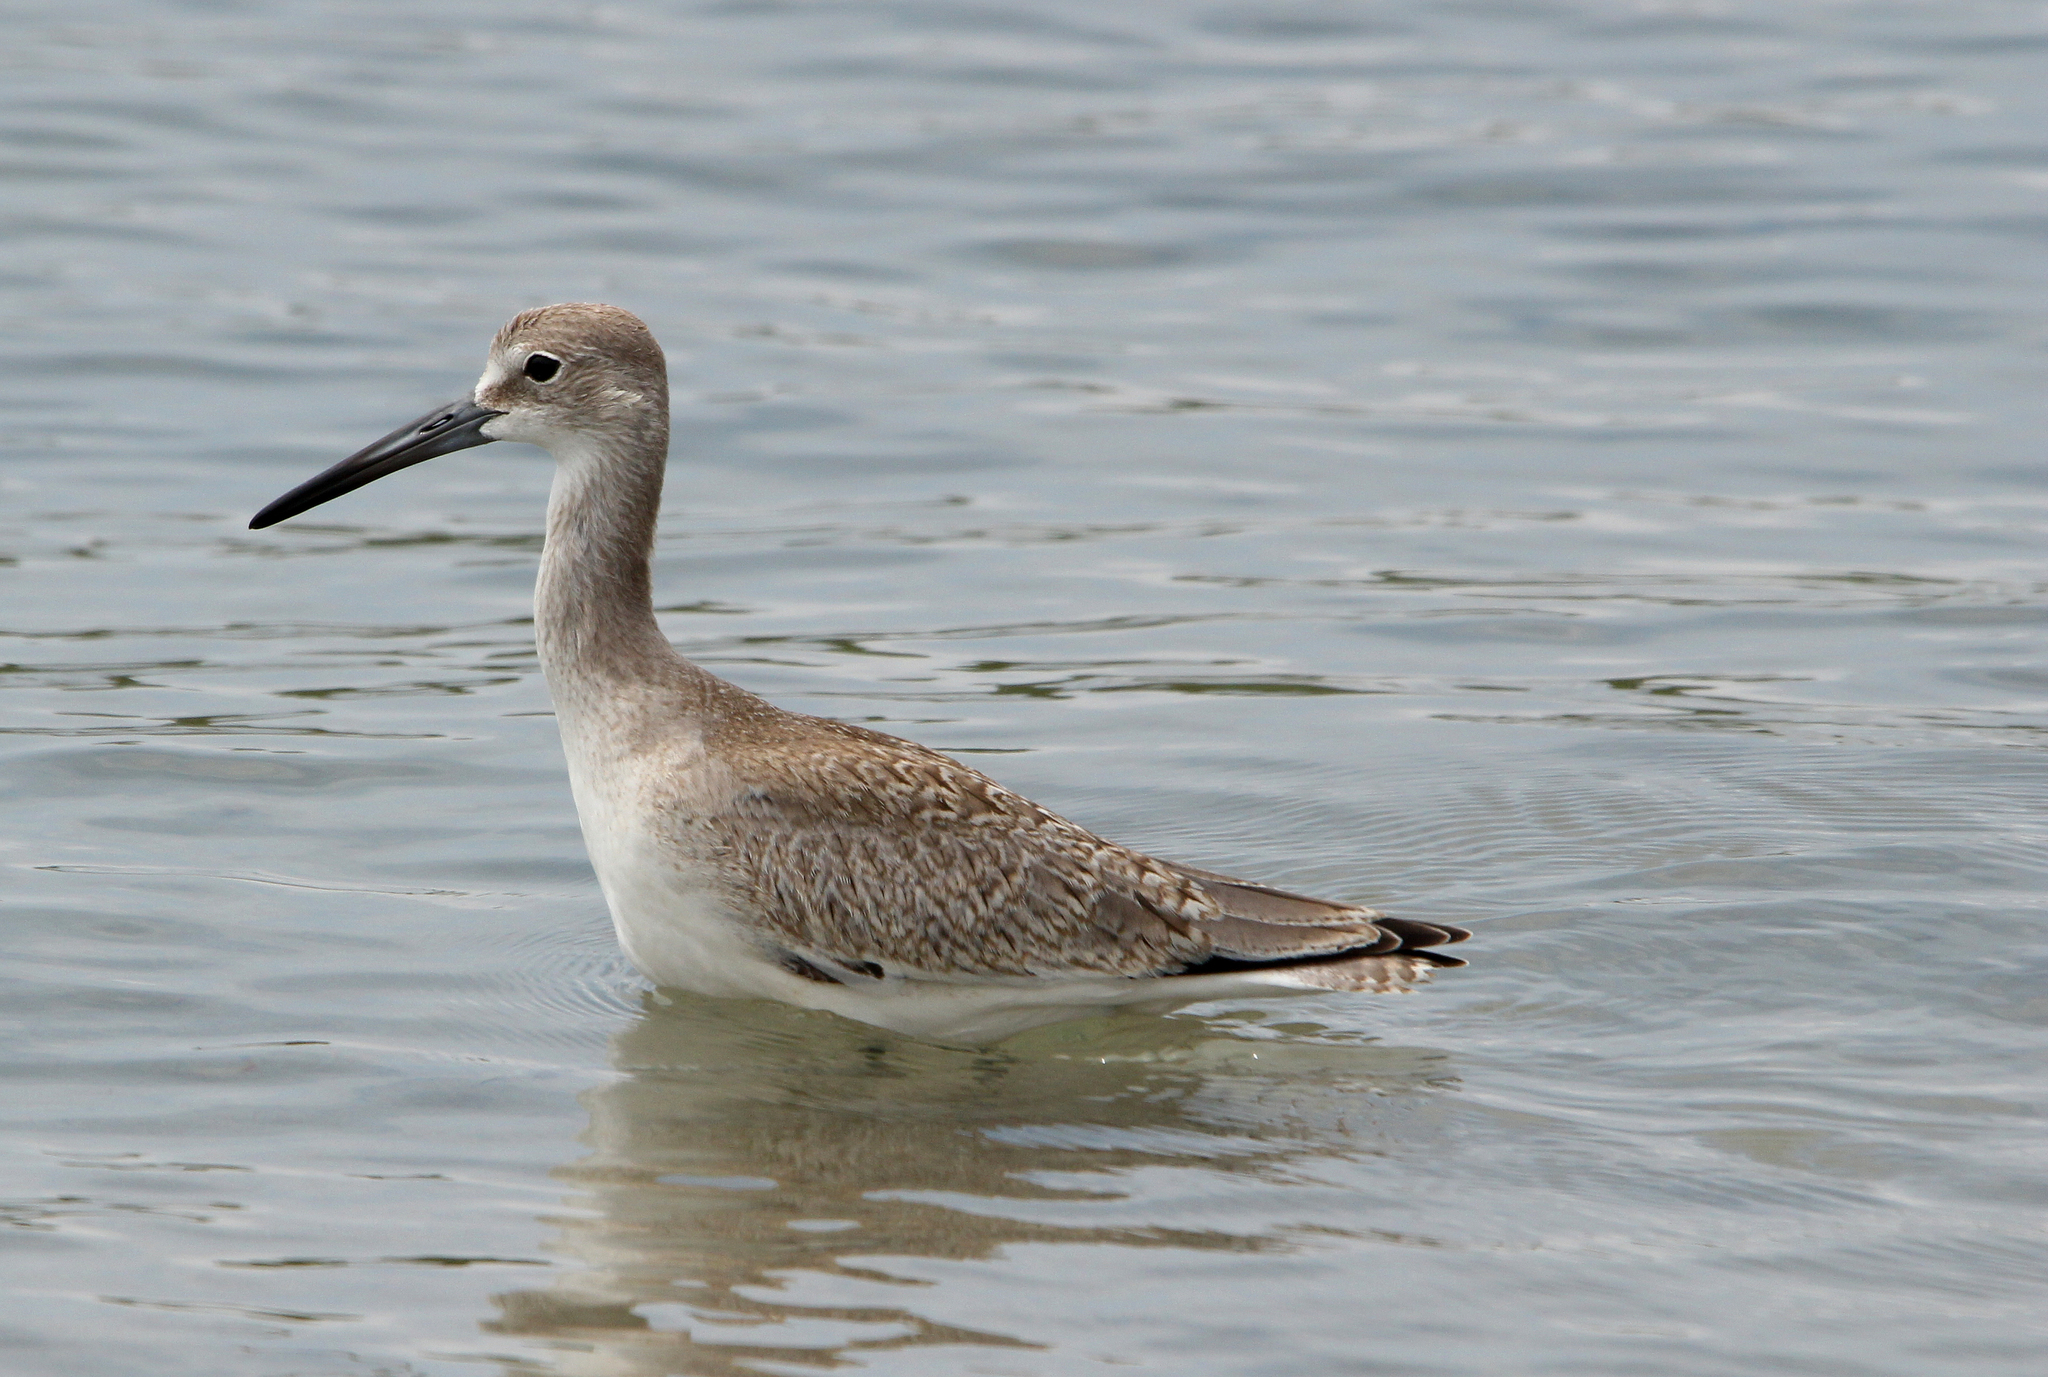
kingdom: Animalia
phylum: Chordata
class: Aves
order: Charadriiformes
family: Scolopacidae
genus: Tringa
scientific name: Tringa semipalmata
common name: Willet
